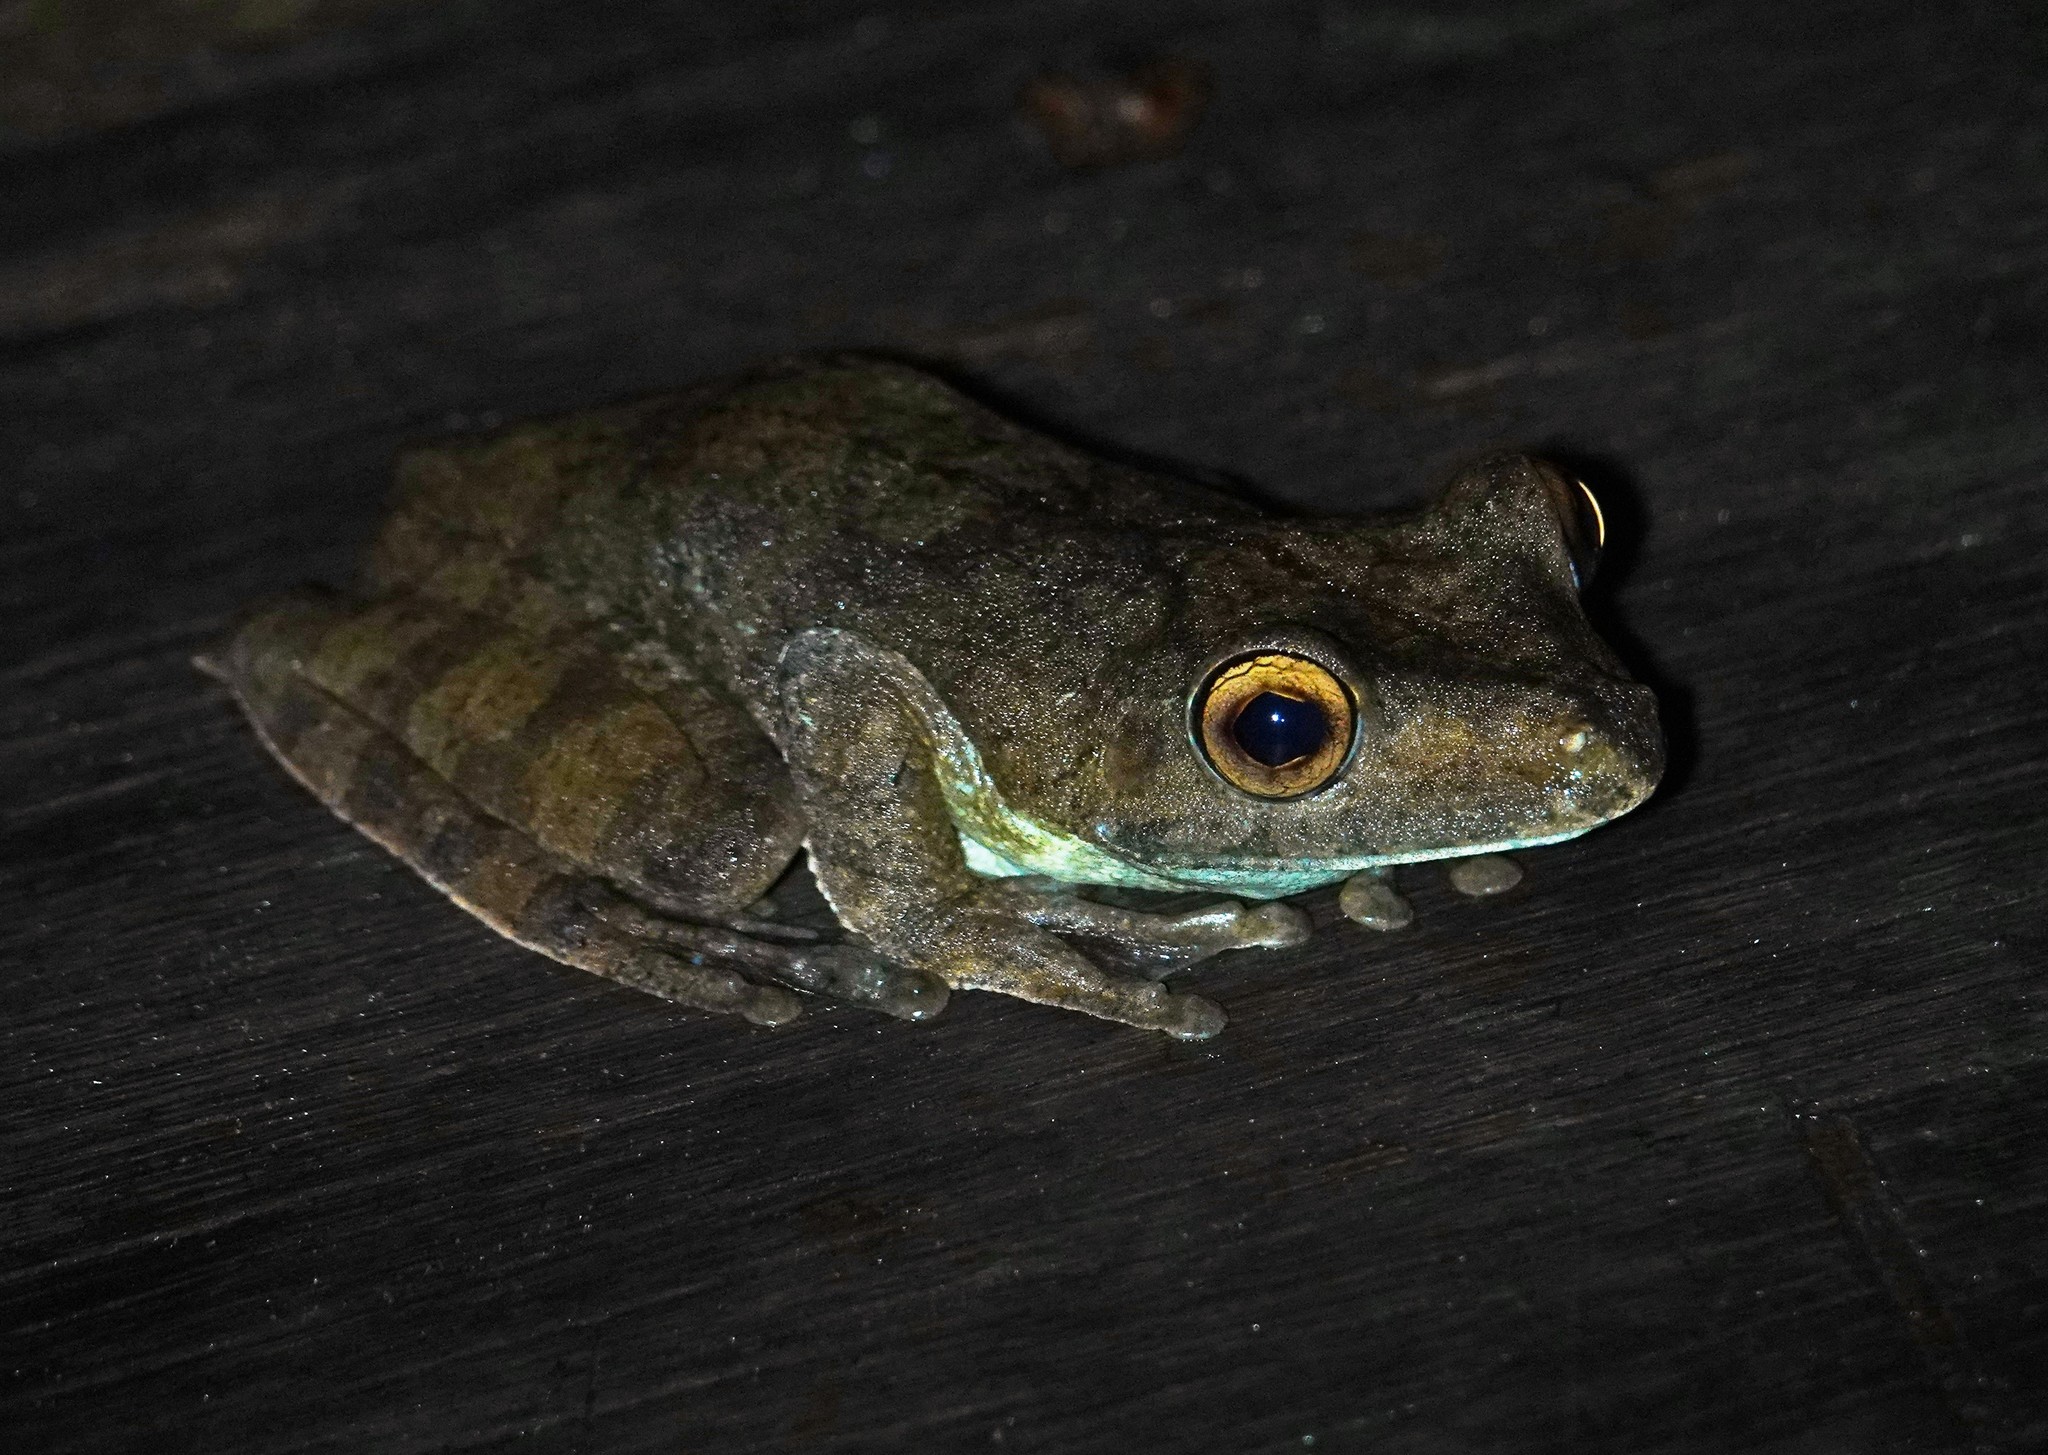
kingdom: Animalia
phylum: Chordata
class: Amphibia
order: Anura
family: Hylidae
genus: Boana
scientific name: Boana boans
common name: Giant gladiator treefrog
